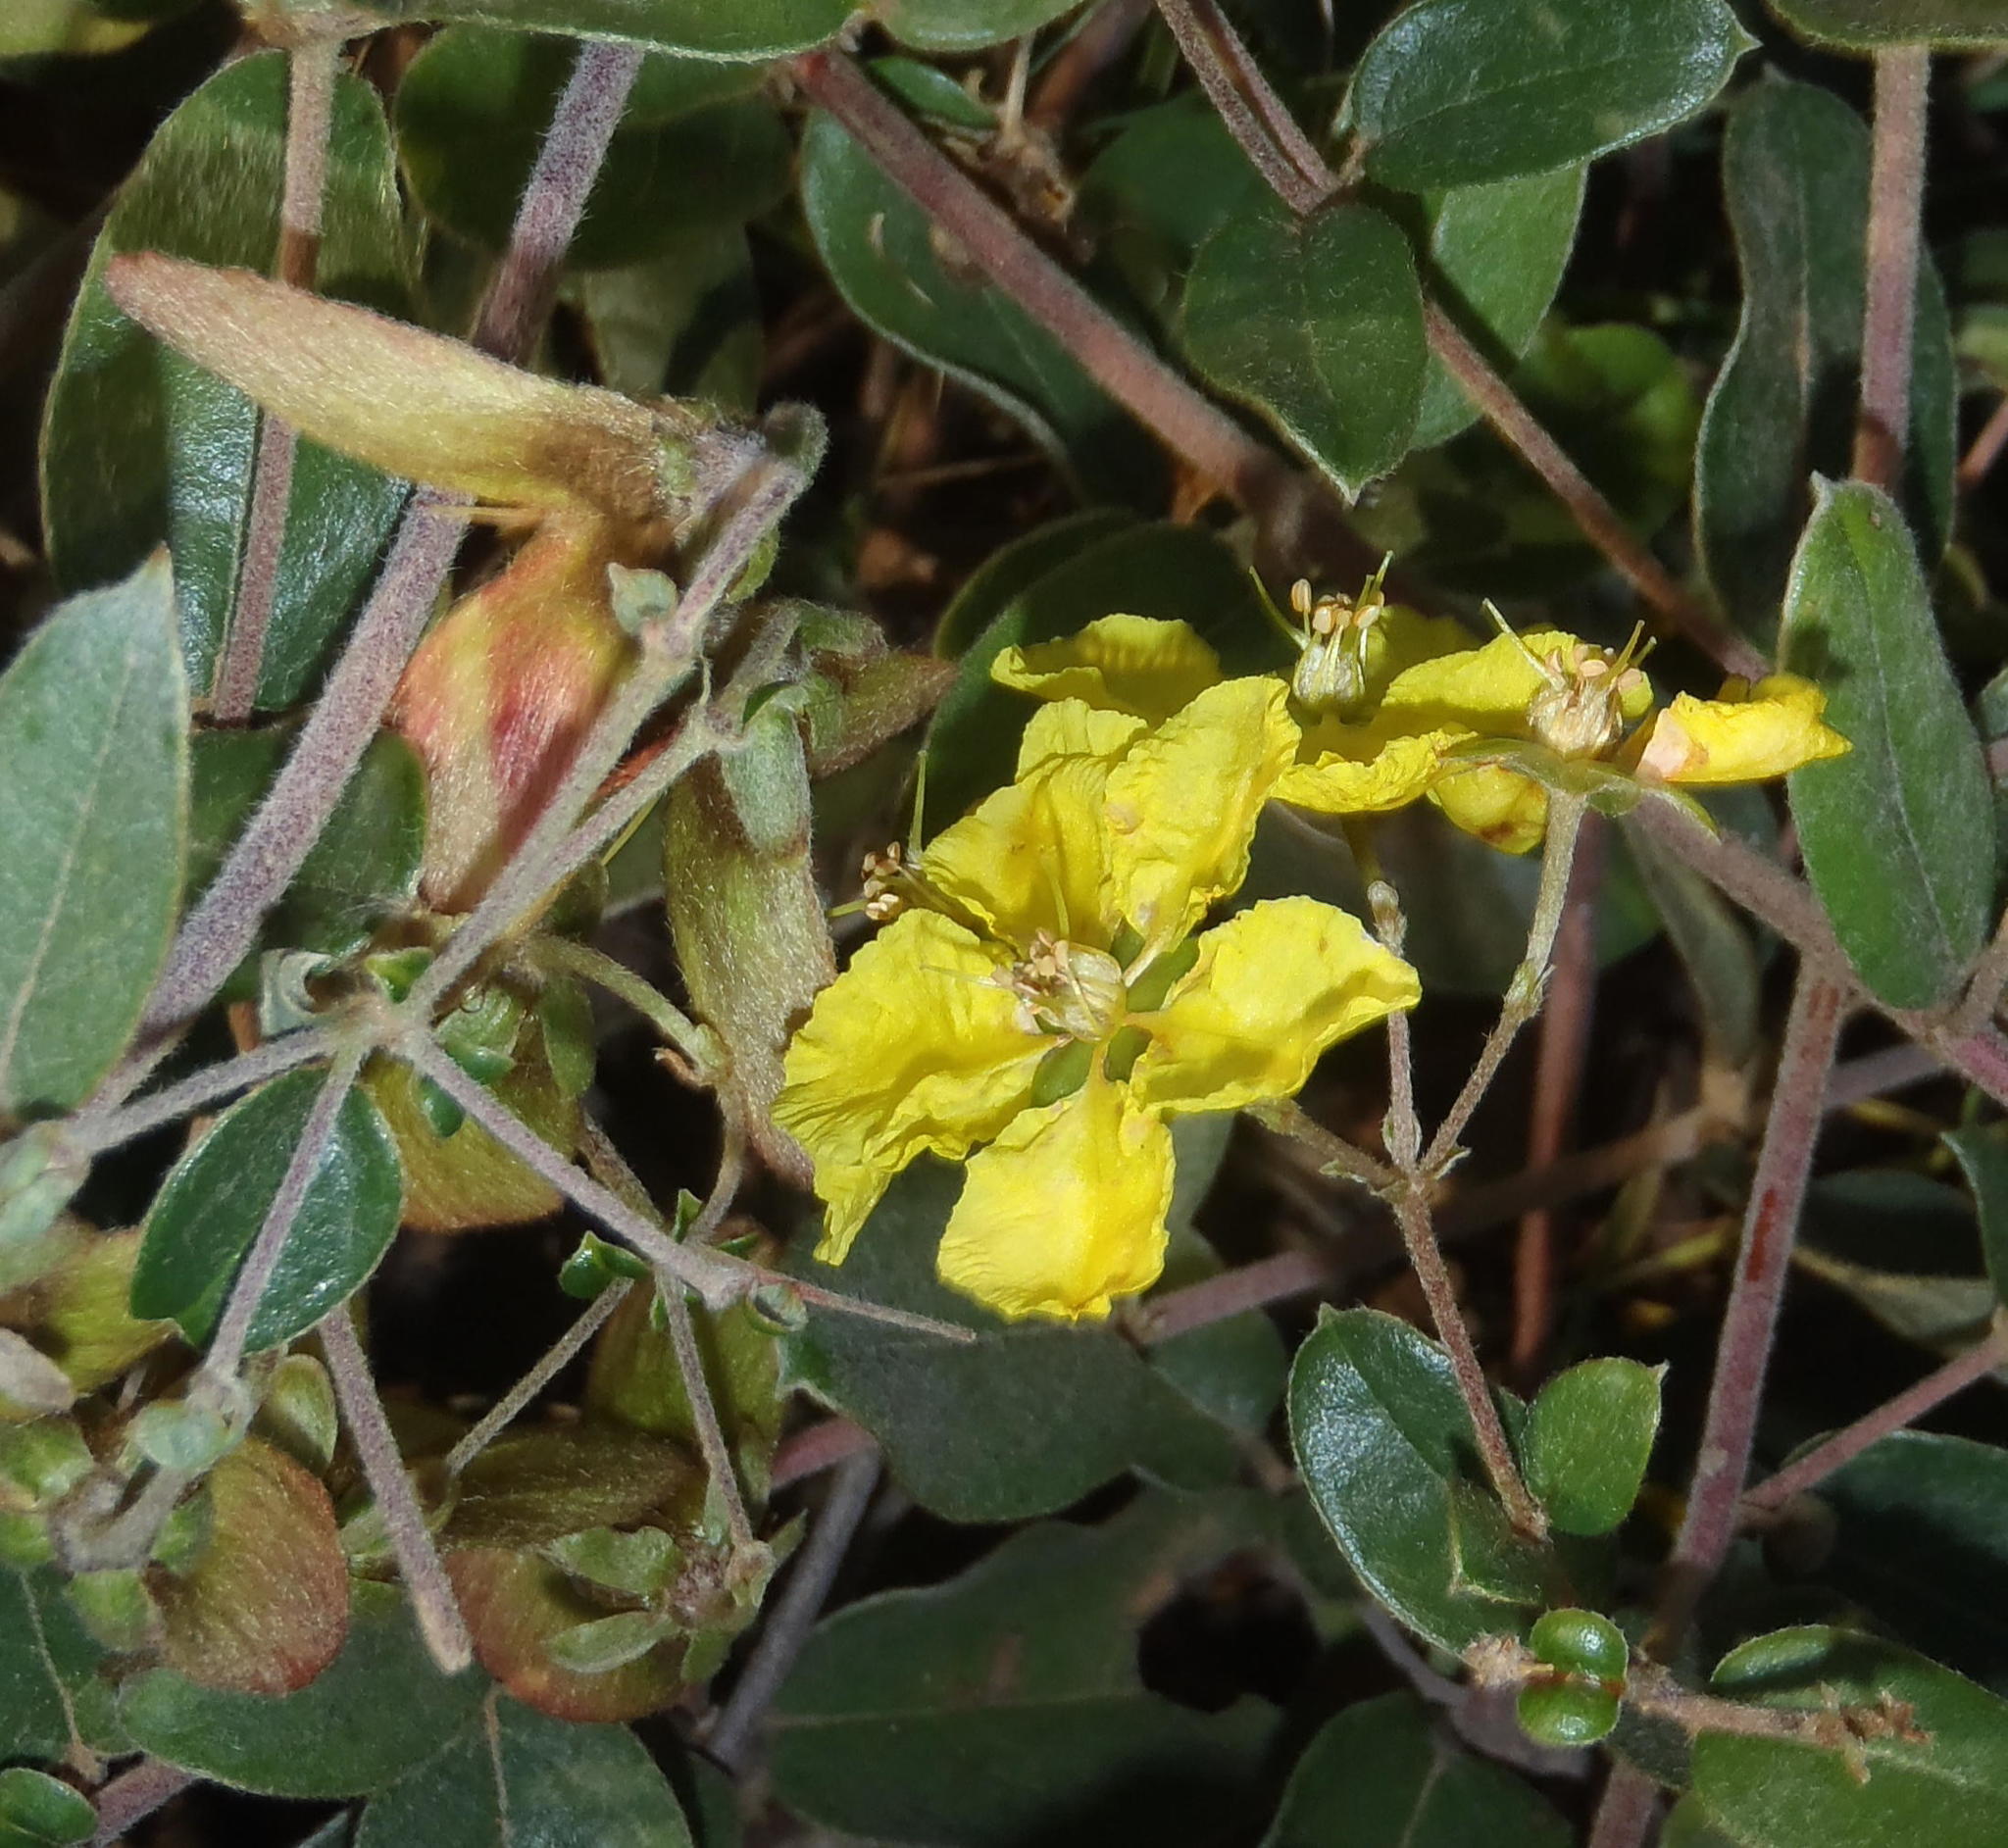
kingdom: Plantae
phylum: Tracheophyta
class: Magnoliopsida
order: Malpighiales
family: Malpighiaceae
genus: Sphedamnocarpus
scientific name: Sphedamnocarpus pruriens
